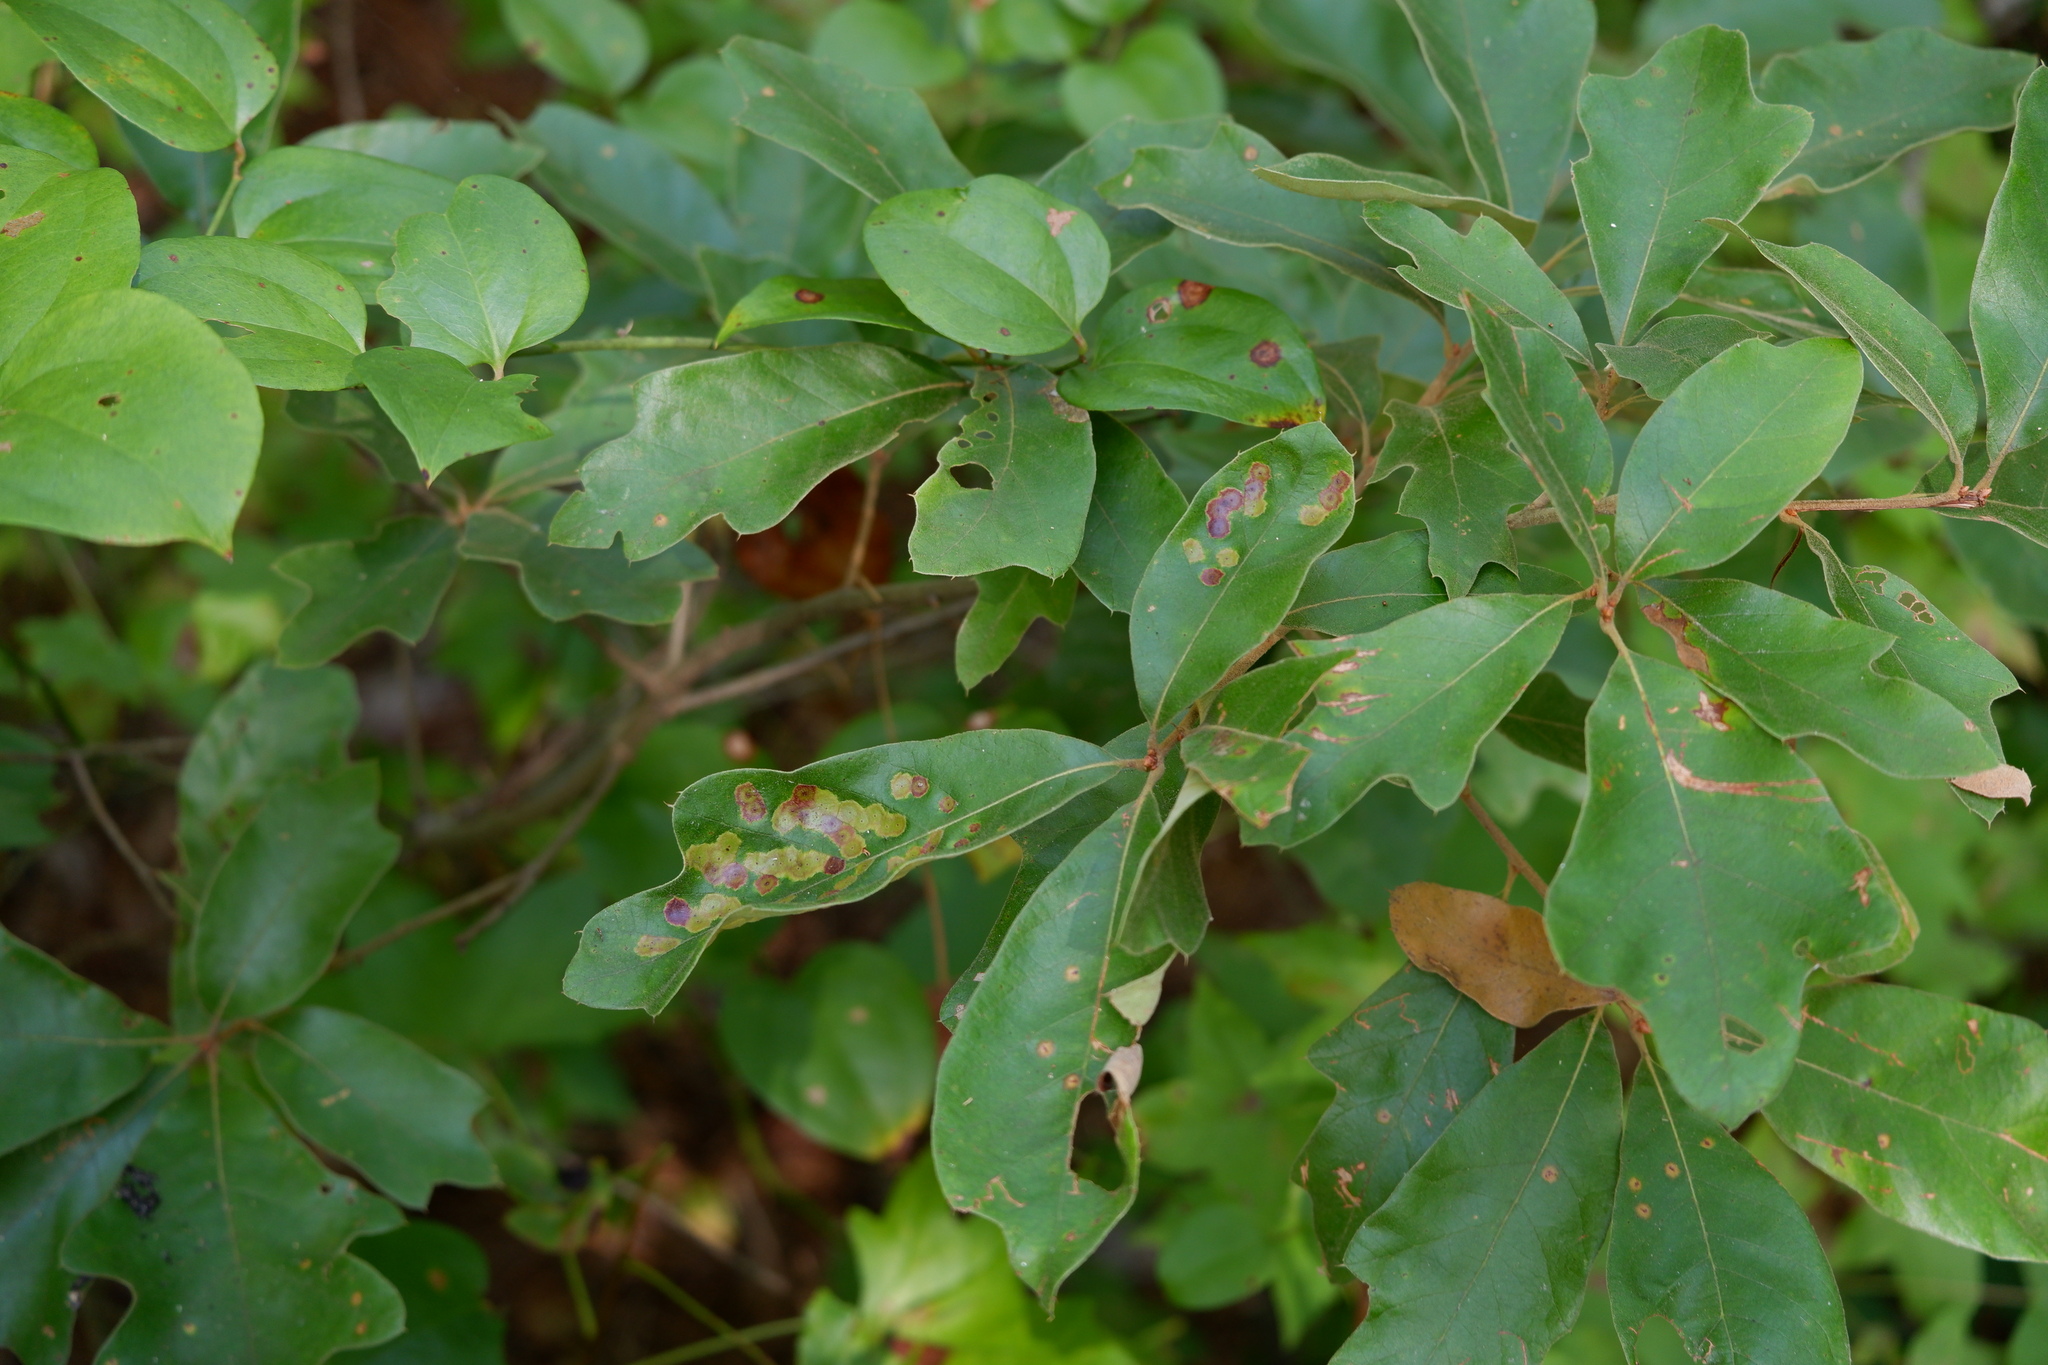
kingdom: Animalia
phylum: Arthropoda
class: Insecta
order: Diptera
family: Cecidomyiidae
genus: Polystepha
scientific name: Polystepha pustuloides
